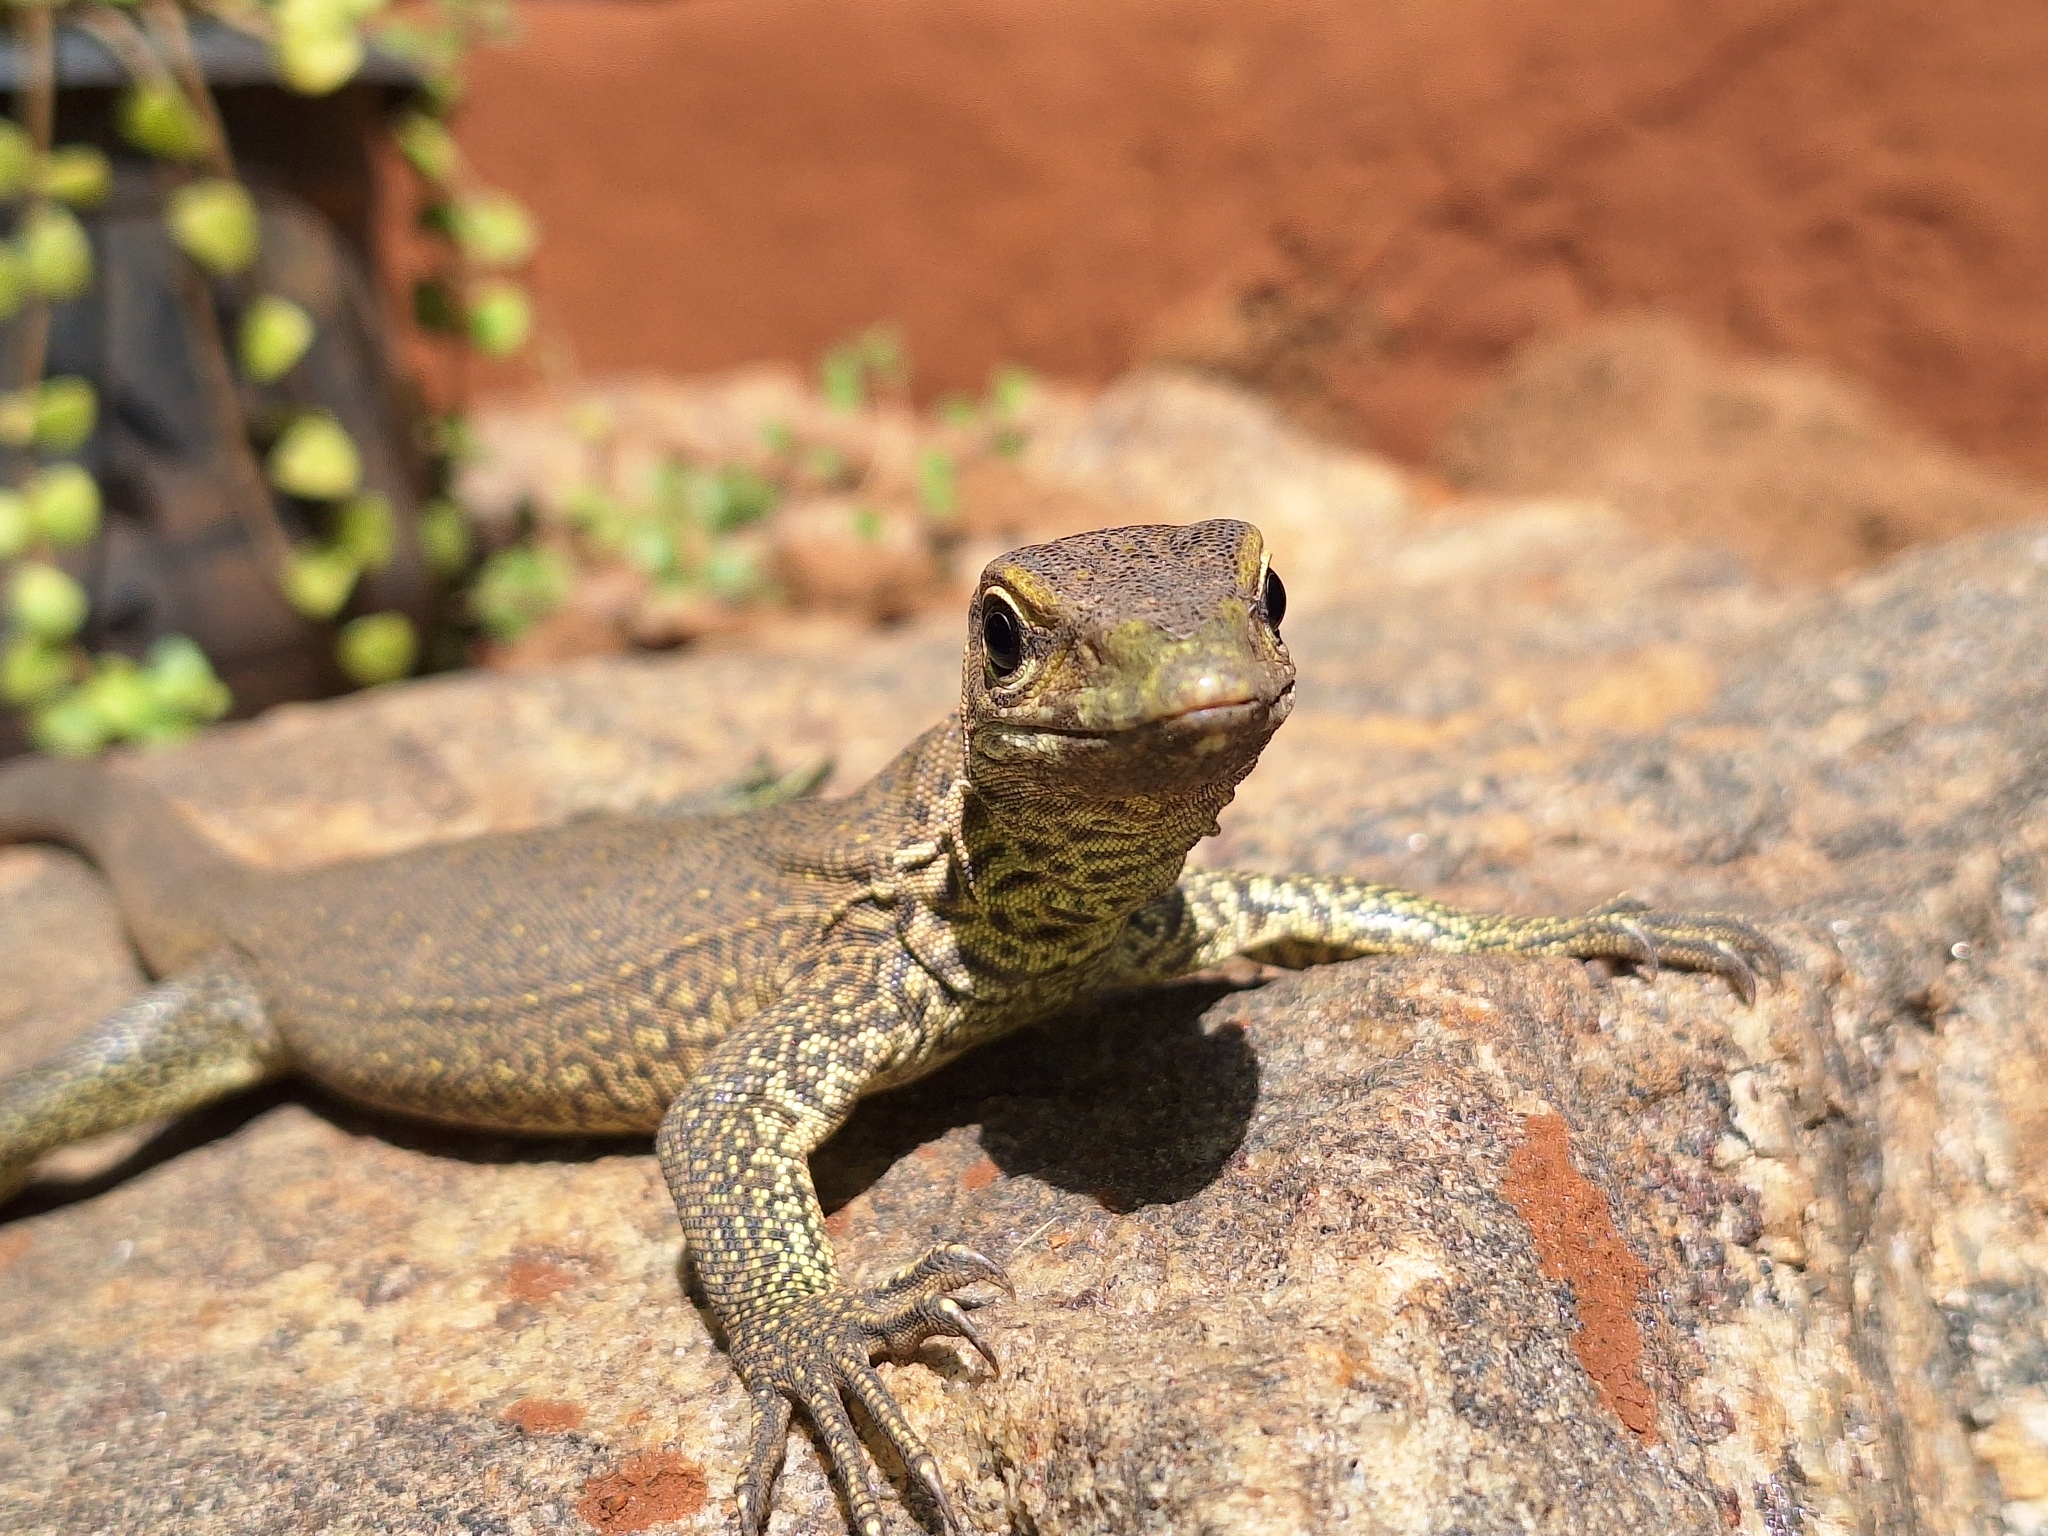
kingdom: Animalia
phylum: Chordata
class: Squamata
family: Varanidae
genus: Varanus
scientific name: Varanus bengalensis
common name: Bengal monitor
